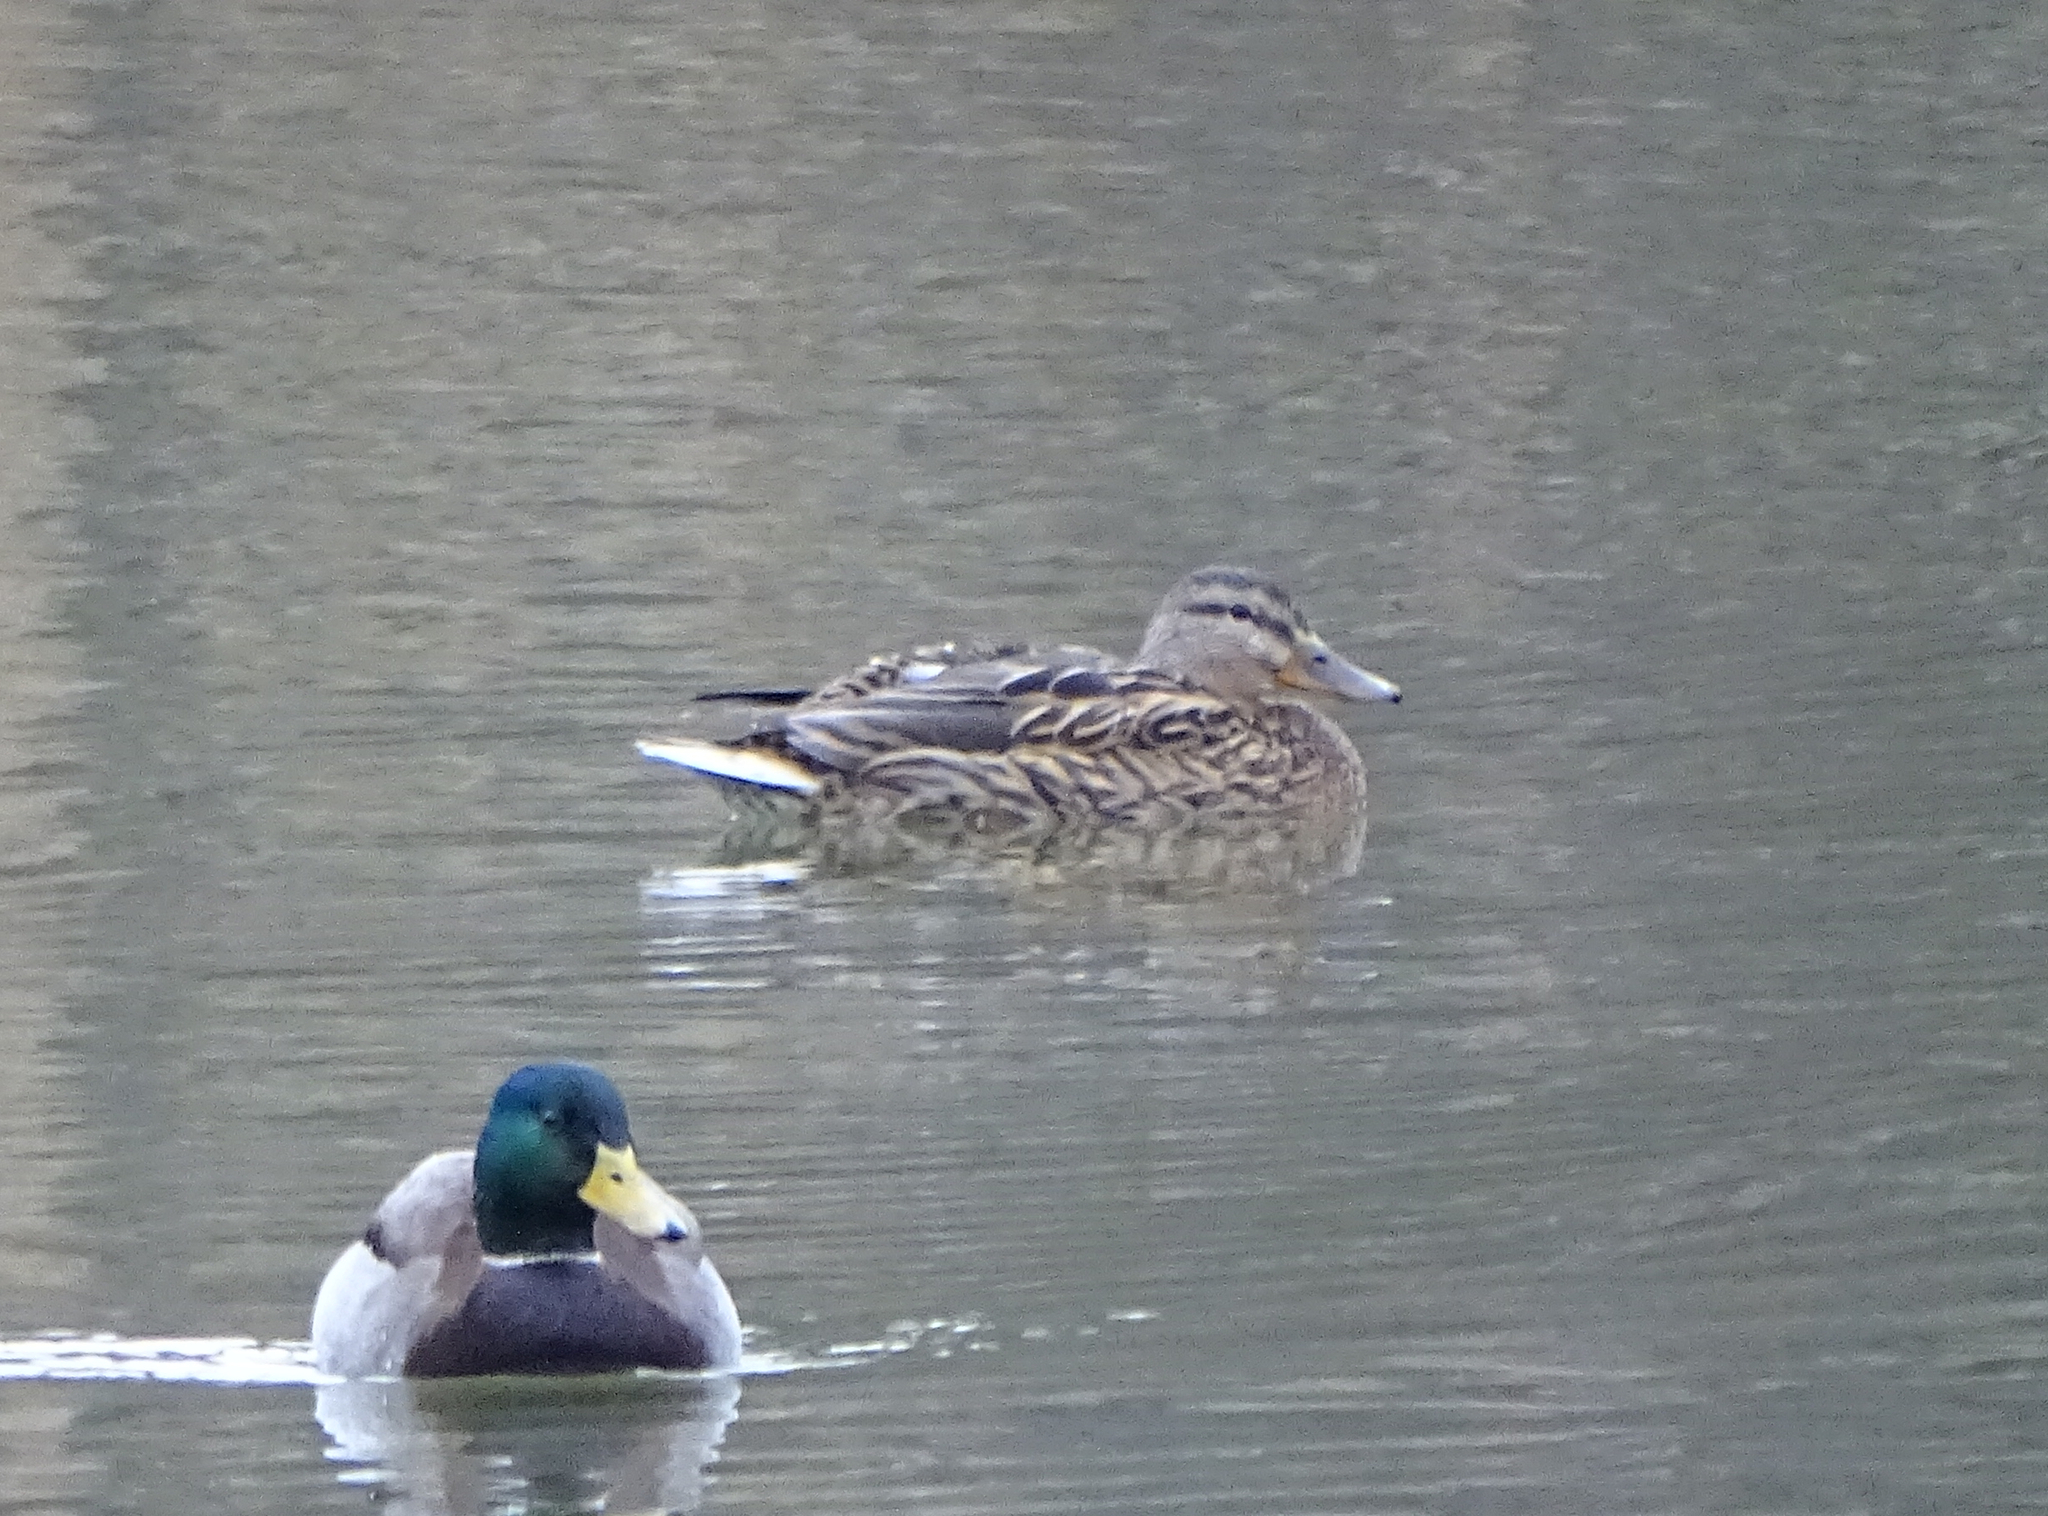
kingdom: Animalia
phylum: Chordata
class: Aves
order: Anseriformes
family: Anatidae
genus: Anas
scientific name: Anas platyrhynchos
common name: Mallard
